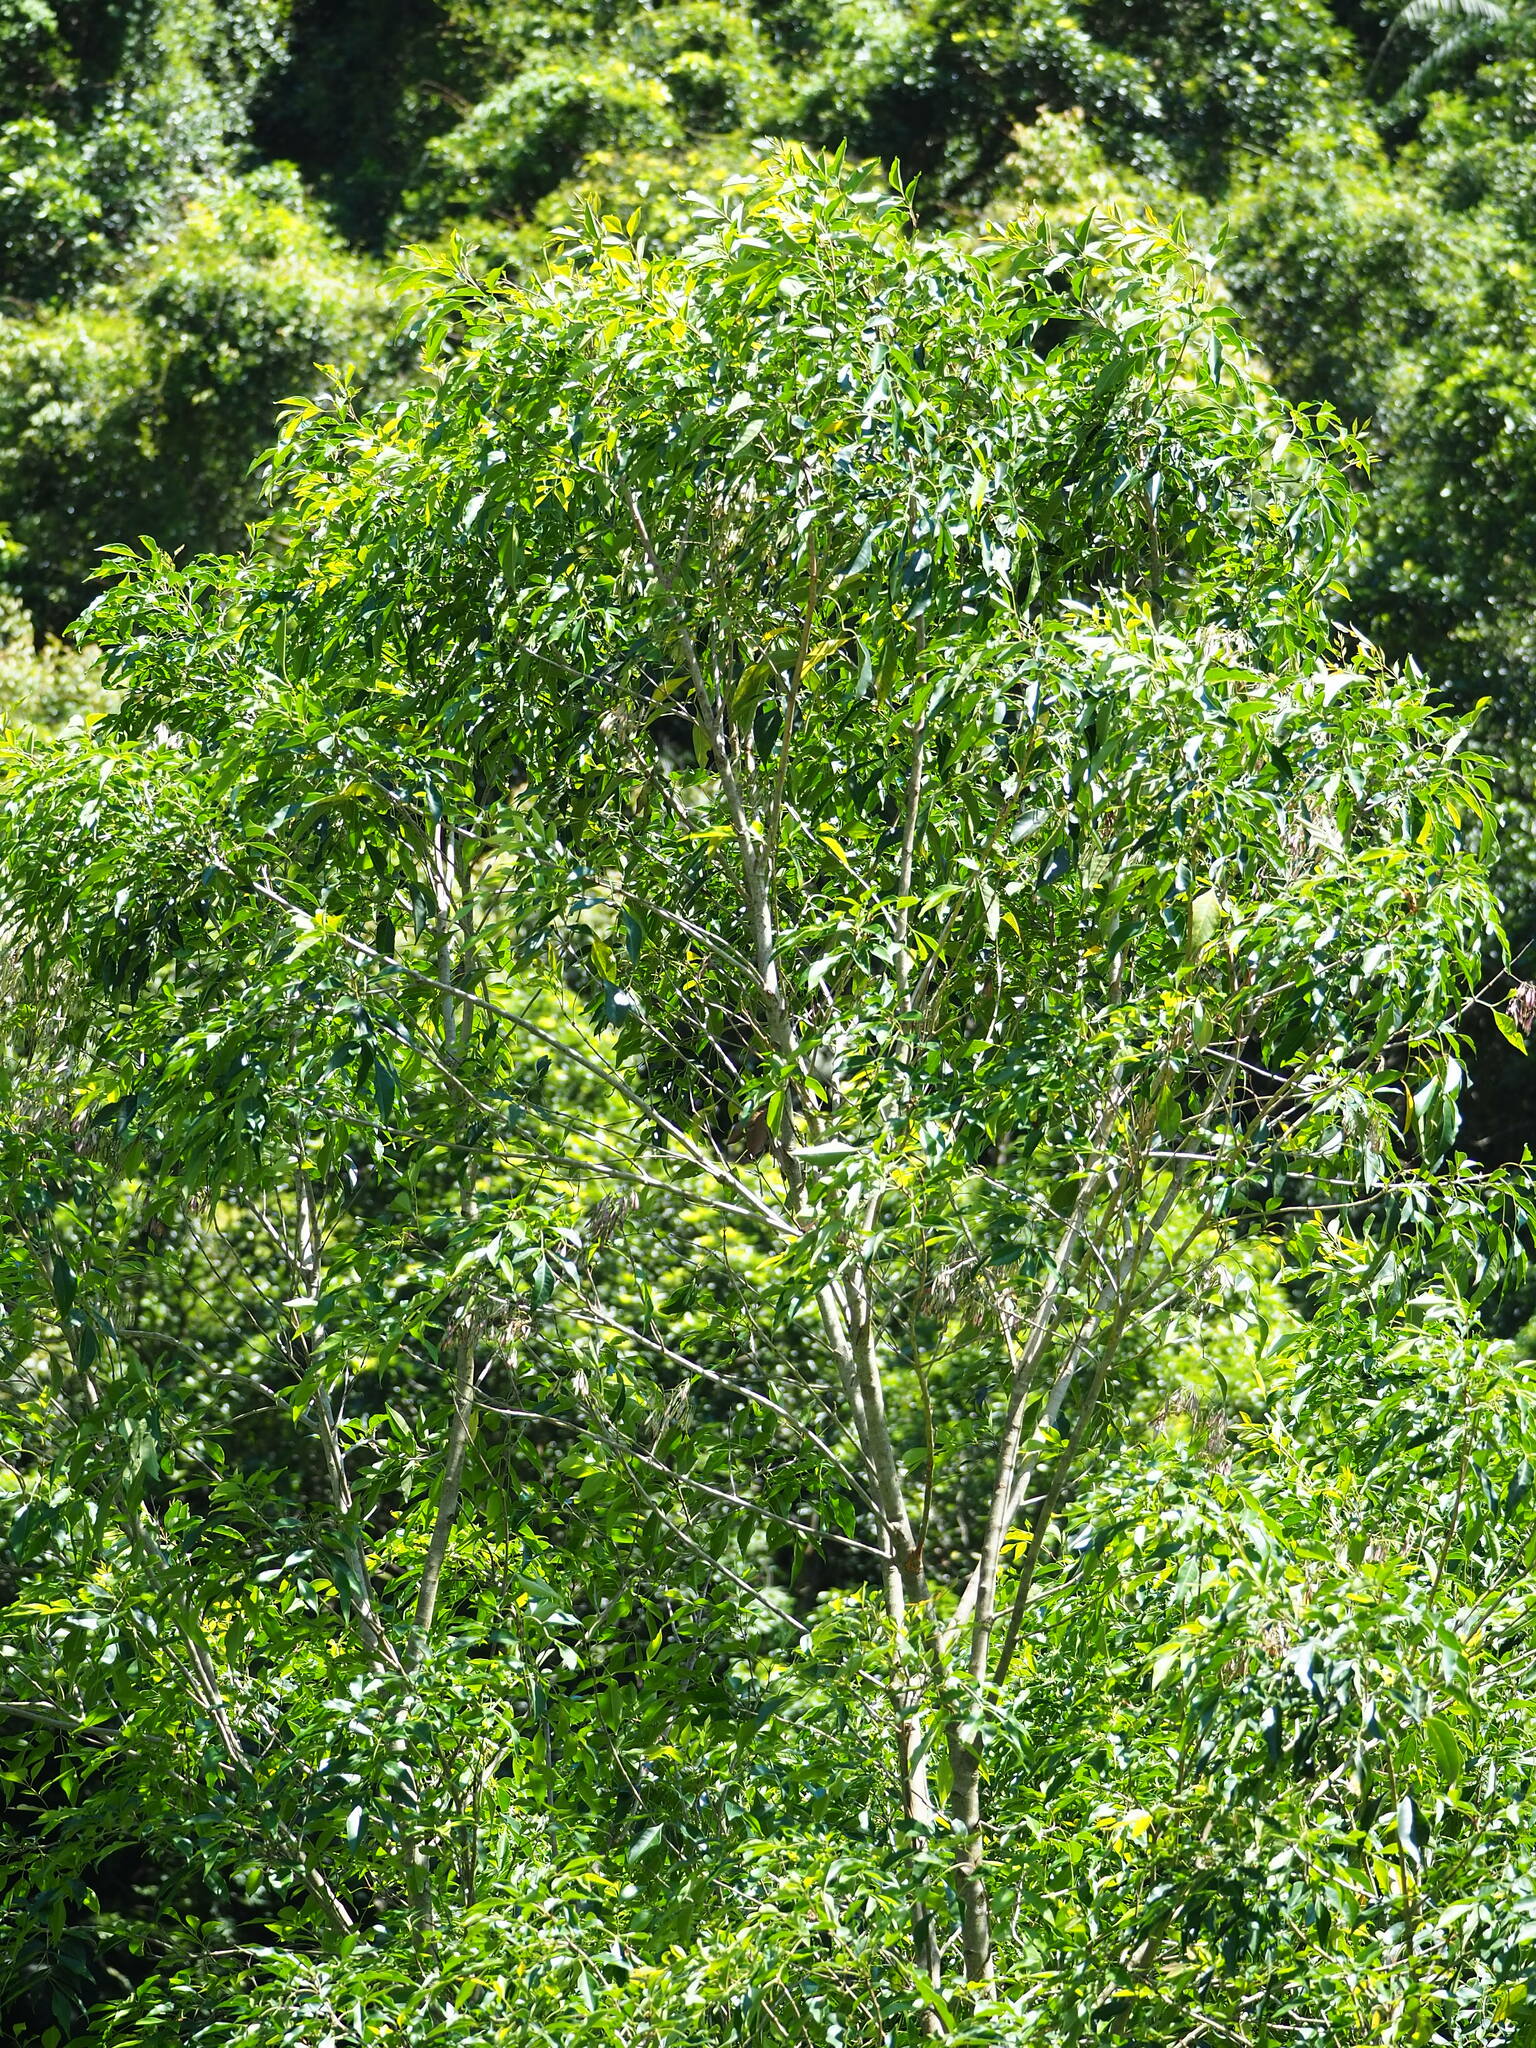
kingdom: Plantae
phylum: Tracheophyta
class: Magnoliopsida
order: Lamiales
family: Oleaceae
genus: Fraxinus
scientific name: Fraxinus griffithii
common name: Himalayan ash
